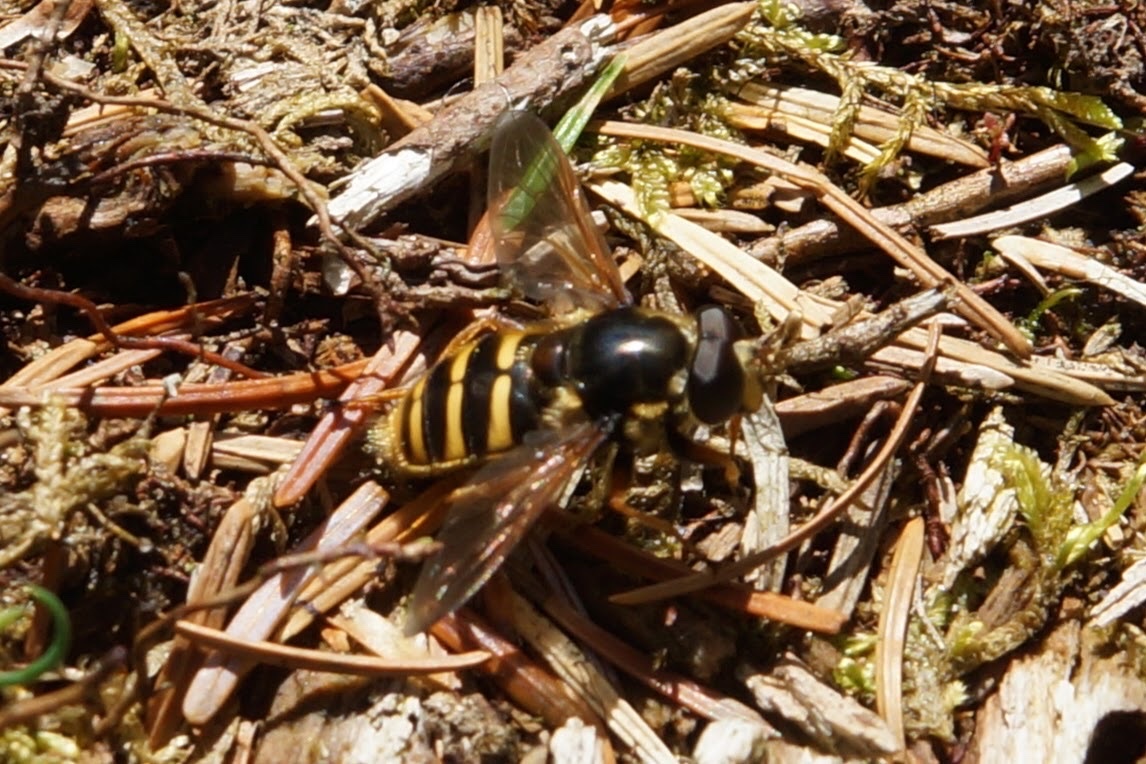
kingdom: Animalia
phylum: Arthropoda
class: Insecta
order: Diptera
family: Syrphidae
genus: Sericomyia
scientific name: Sericomyia silentis
